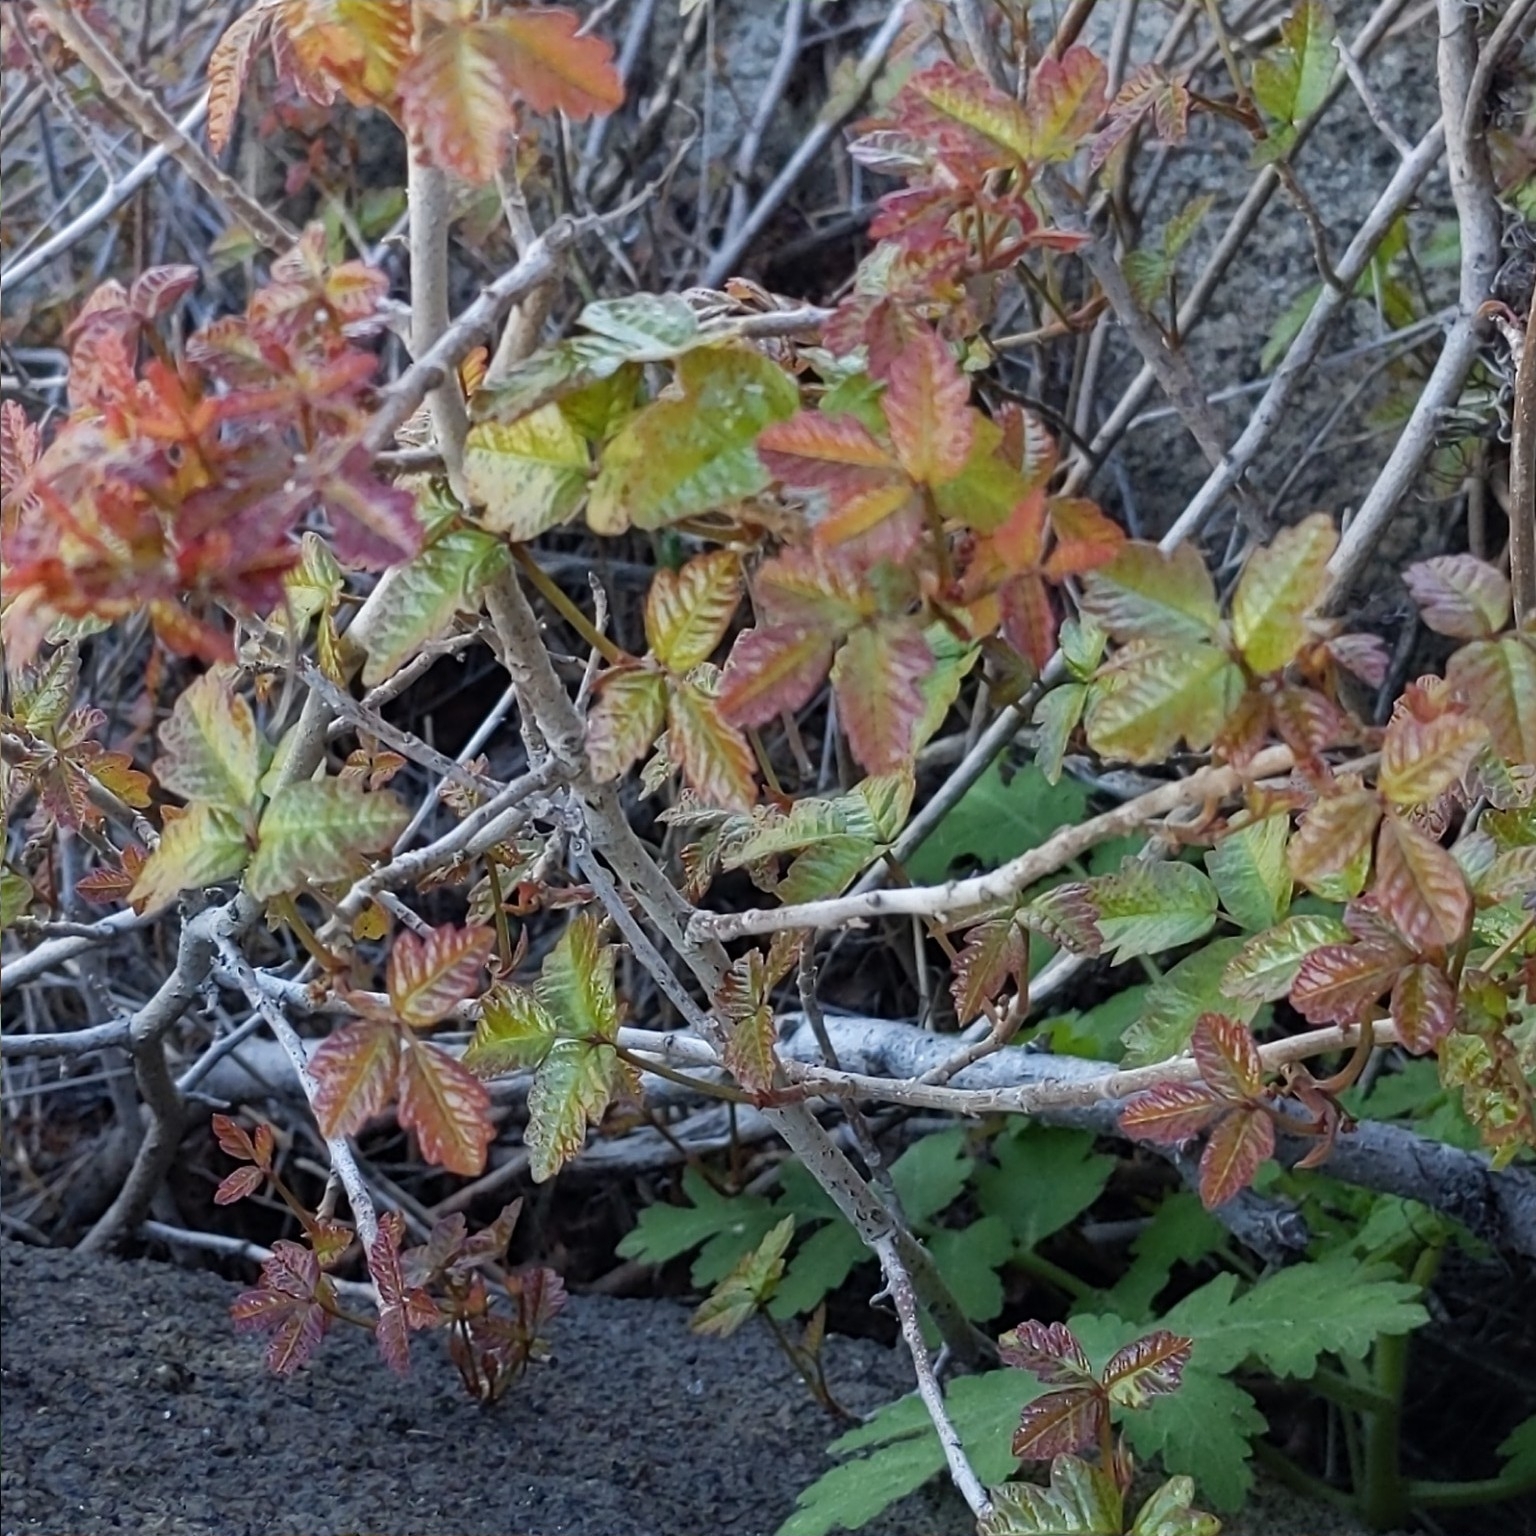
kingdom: Plantae
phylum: Tracheophyta
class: Magnoliopsida
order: Sapindales
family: Anacardiaceae
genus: Toxicodendron
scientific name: Toxicodendron diversilobum
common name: Pacific poison-oak
